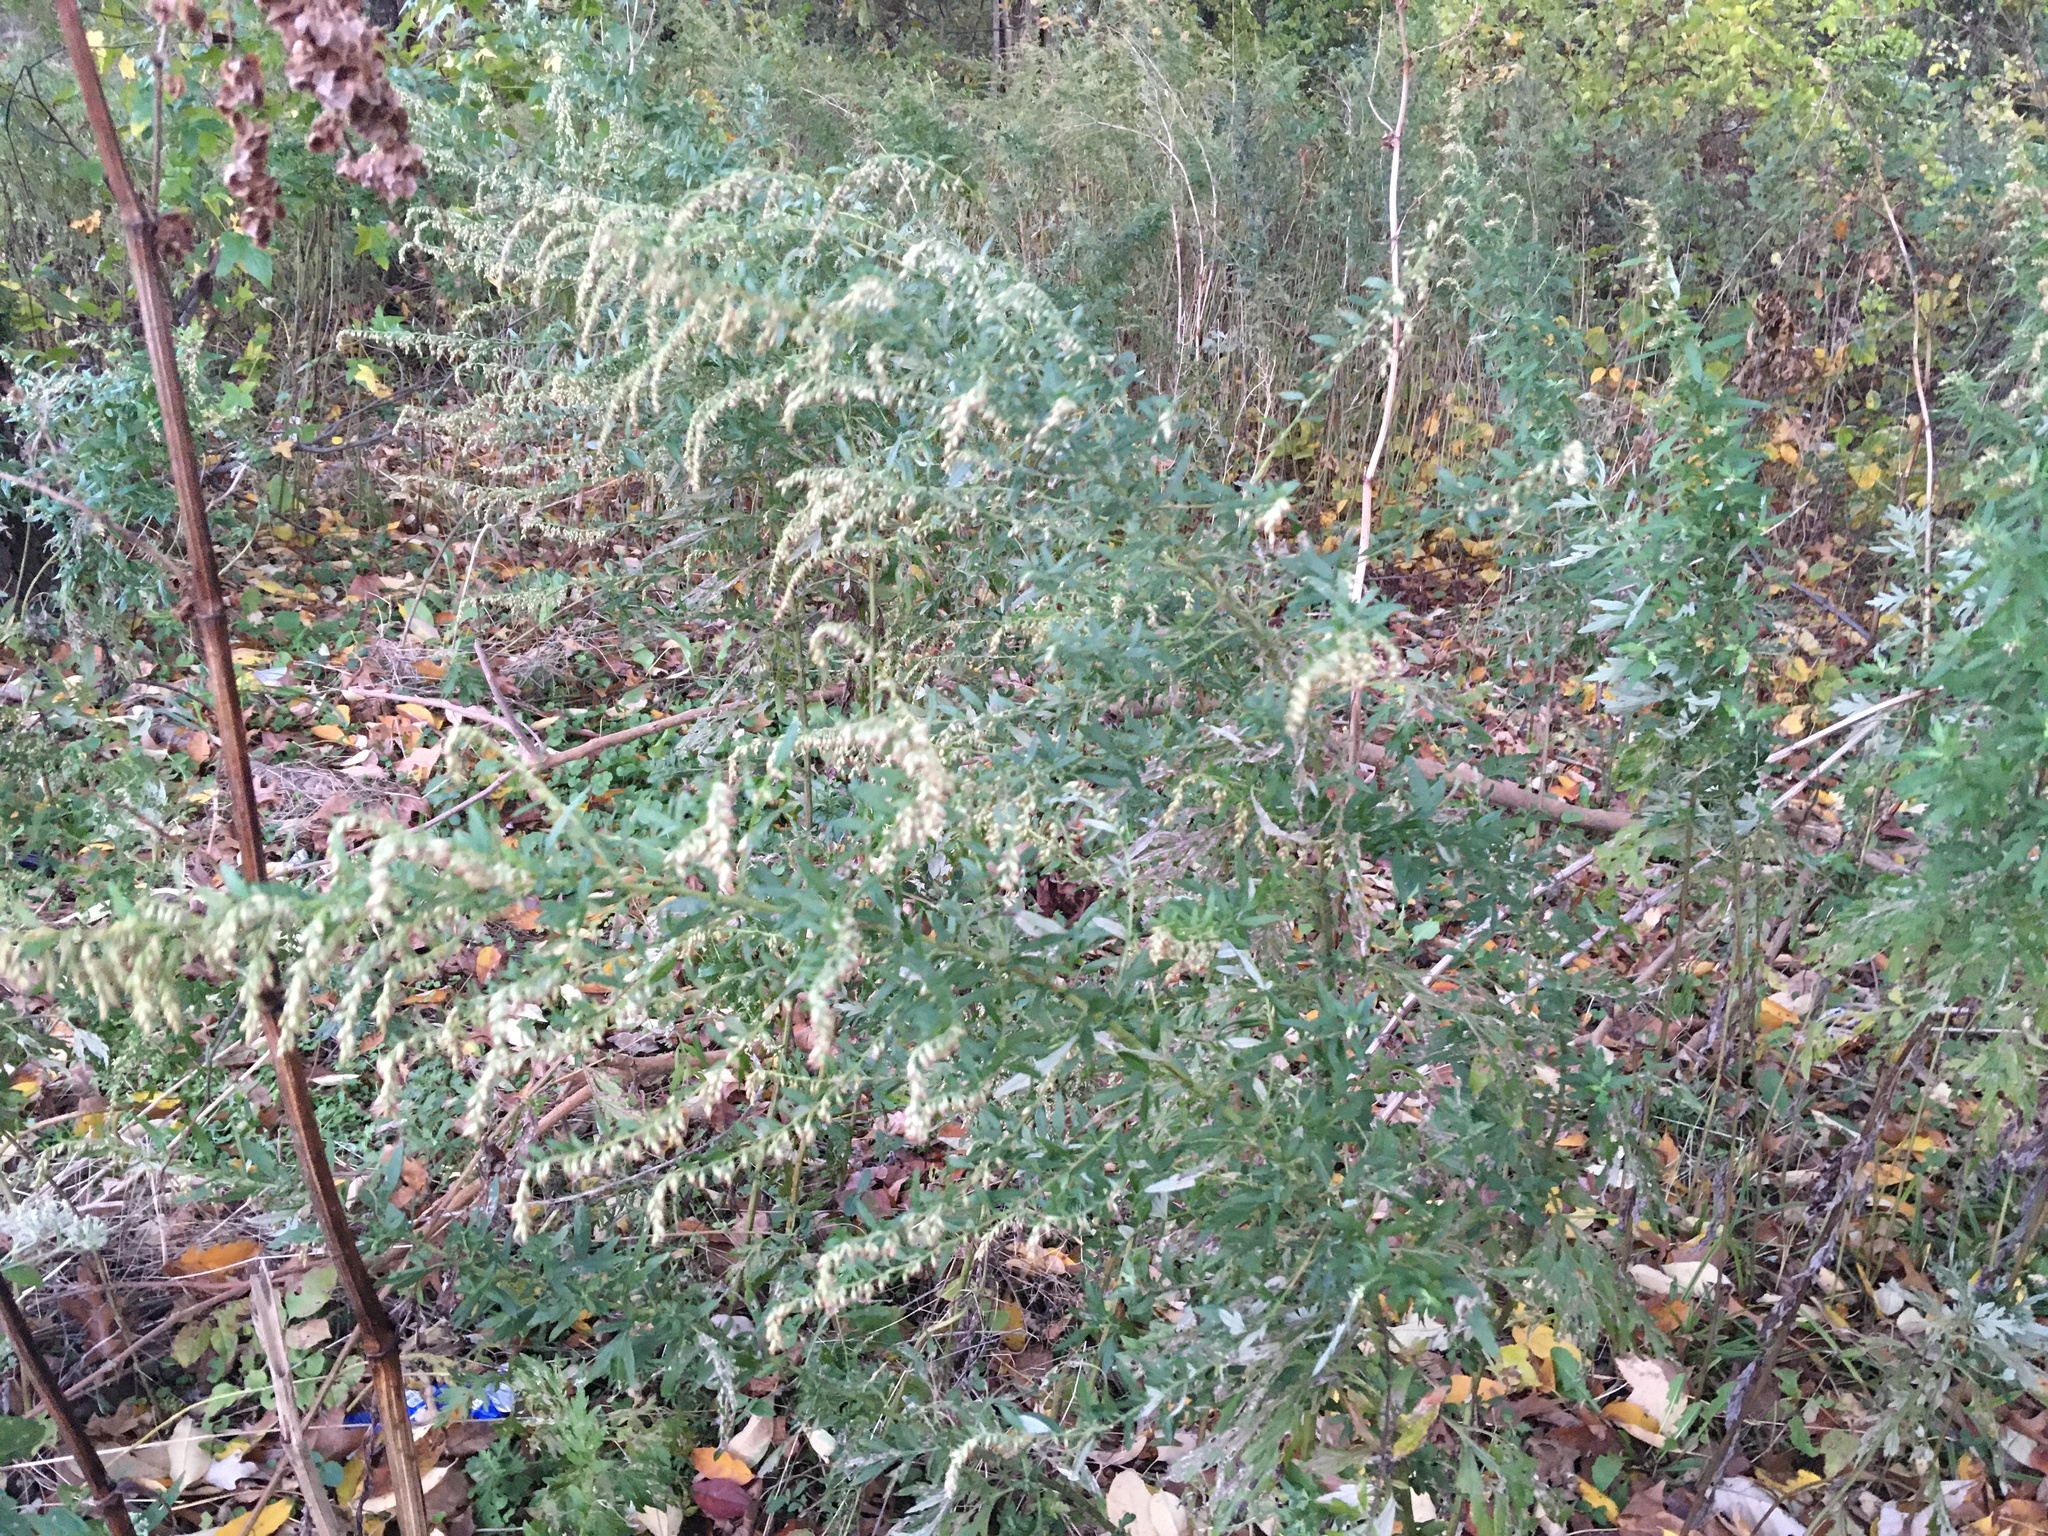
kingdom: Plantae
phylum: Tracheophyta
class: Magnoliopsida
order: Asterales
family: Asteraceae
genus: Artemisia
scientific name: Artemisia vulgaris
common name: Mugwort
